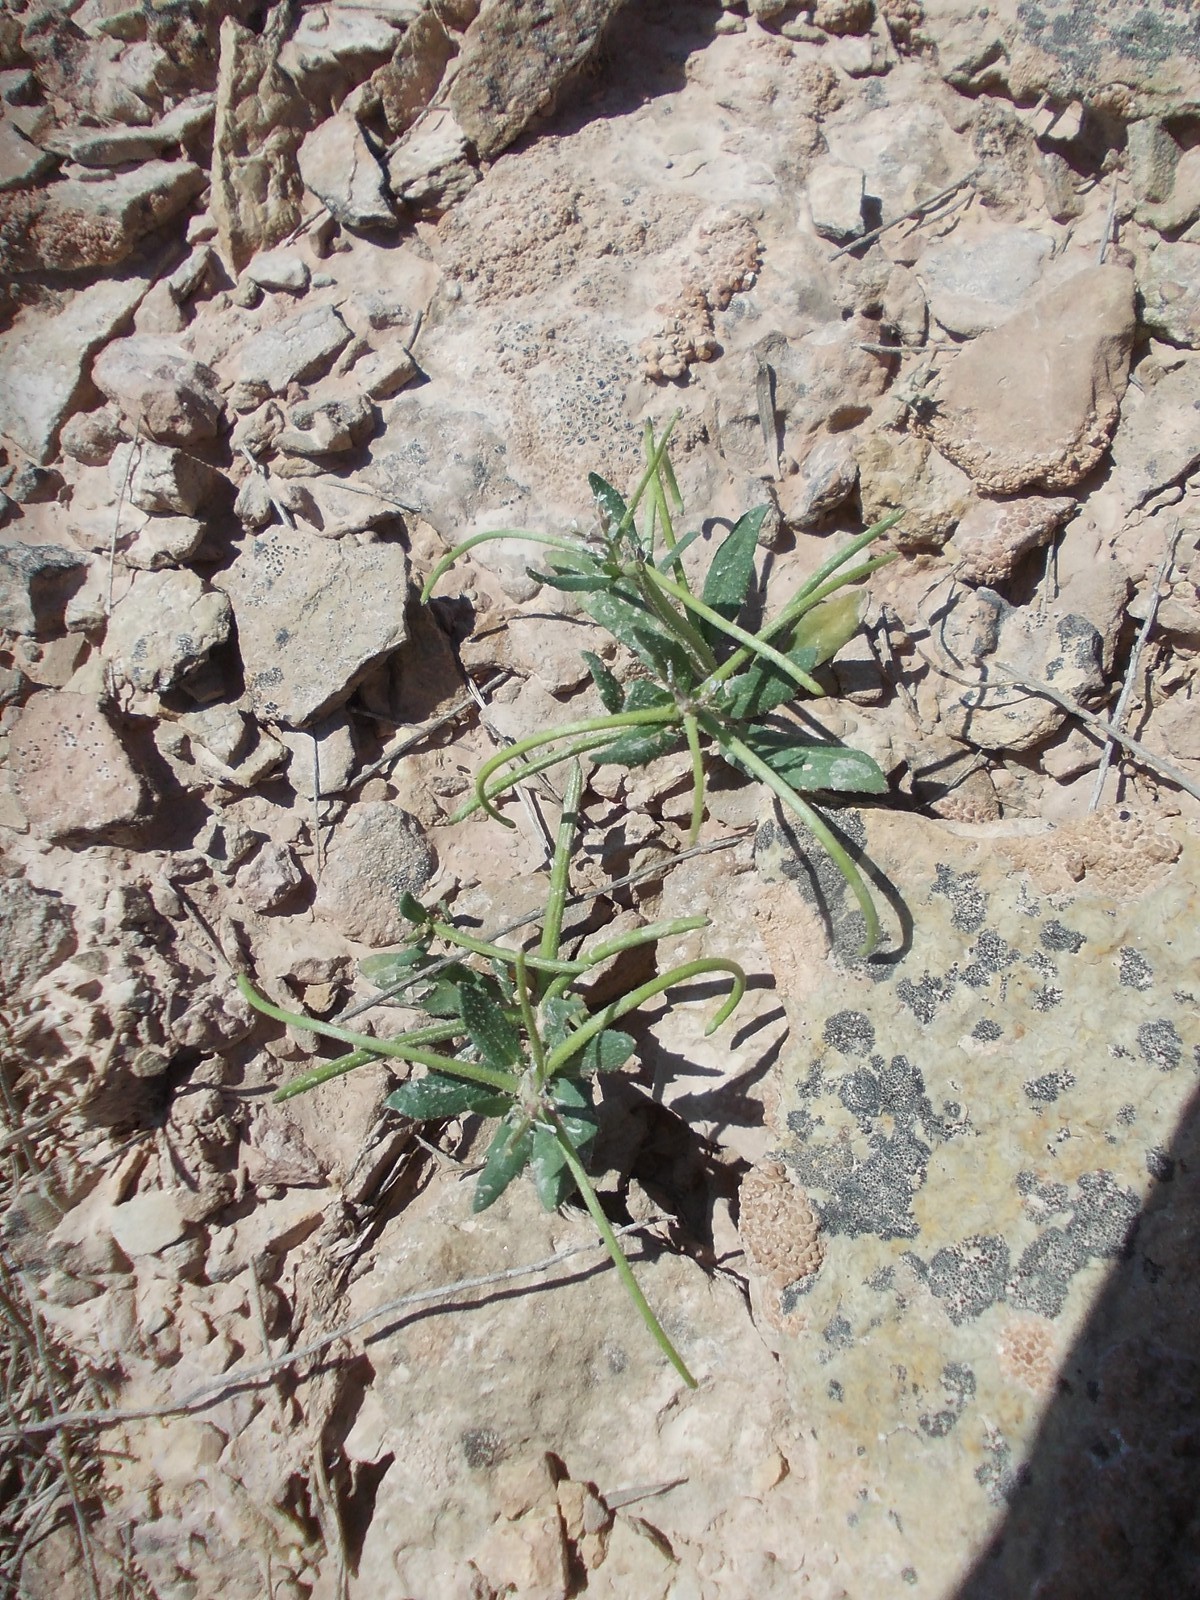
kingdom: Plantae
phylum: Tracheophyta
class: Magnoliopsida
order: Brassicales
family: Brassicaceae
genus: Strigosella
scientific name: Strigosella africana
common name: African mustard
